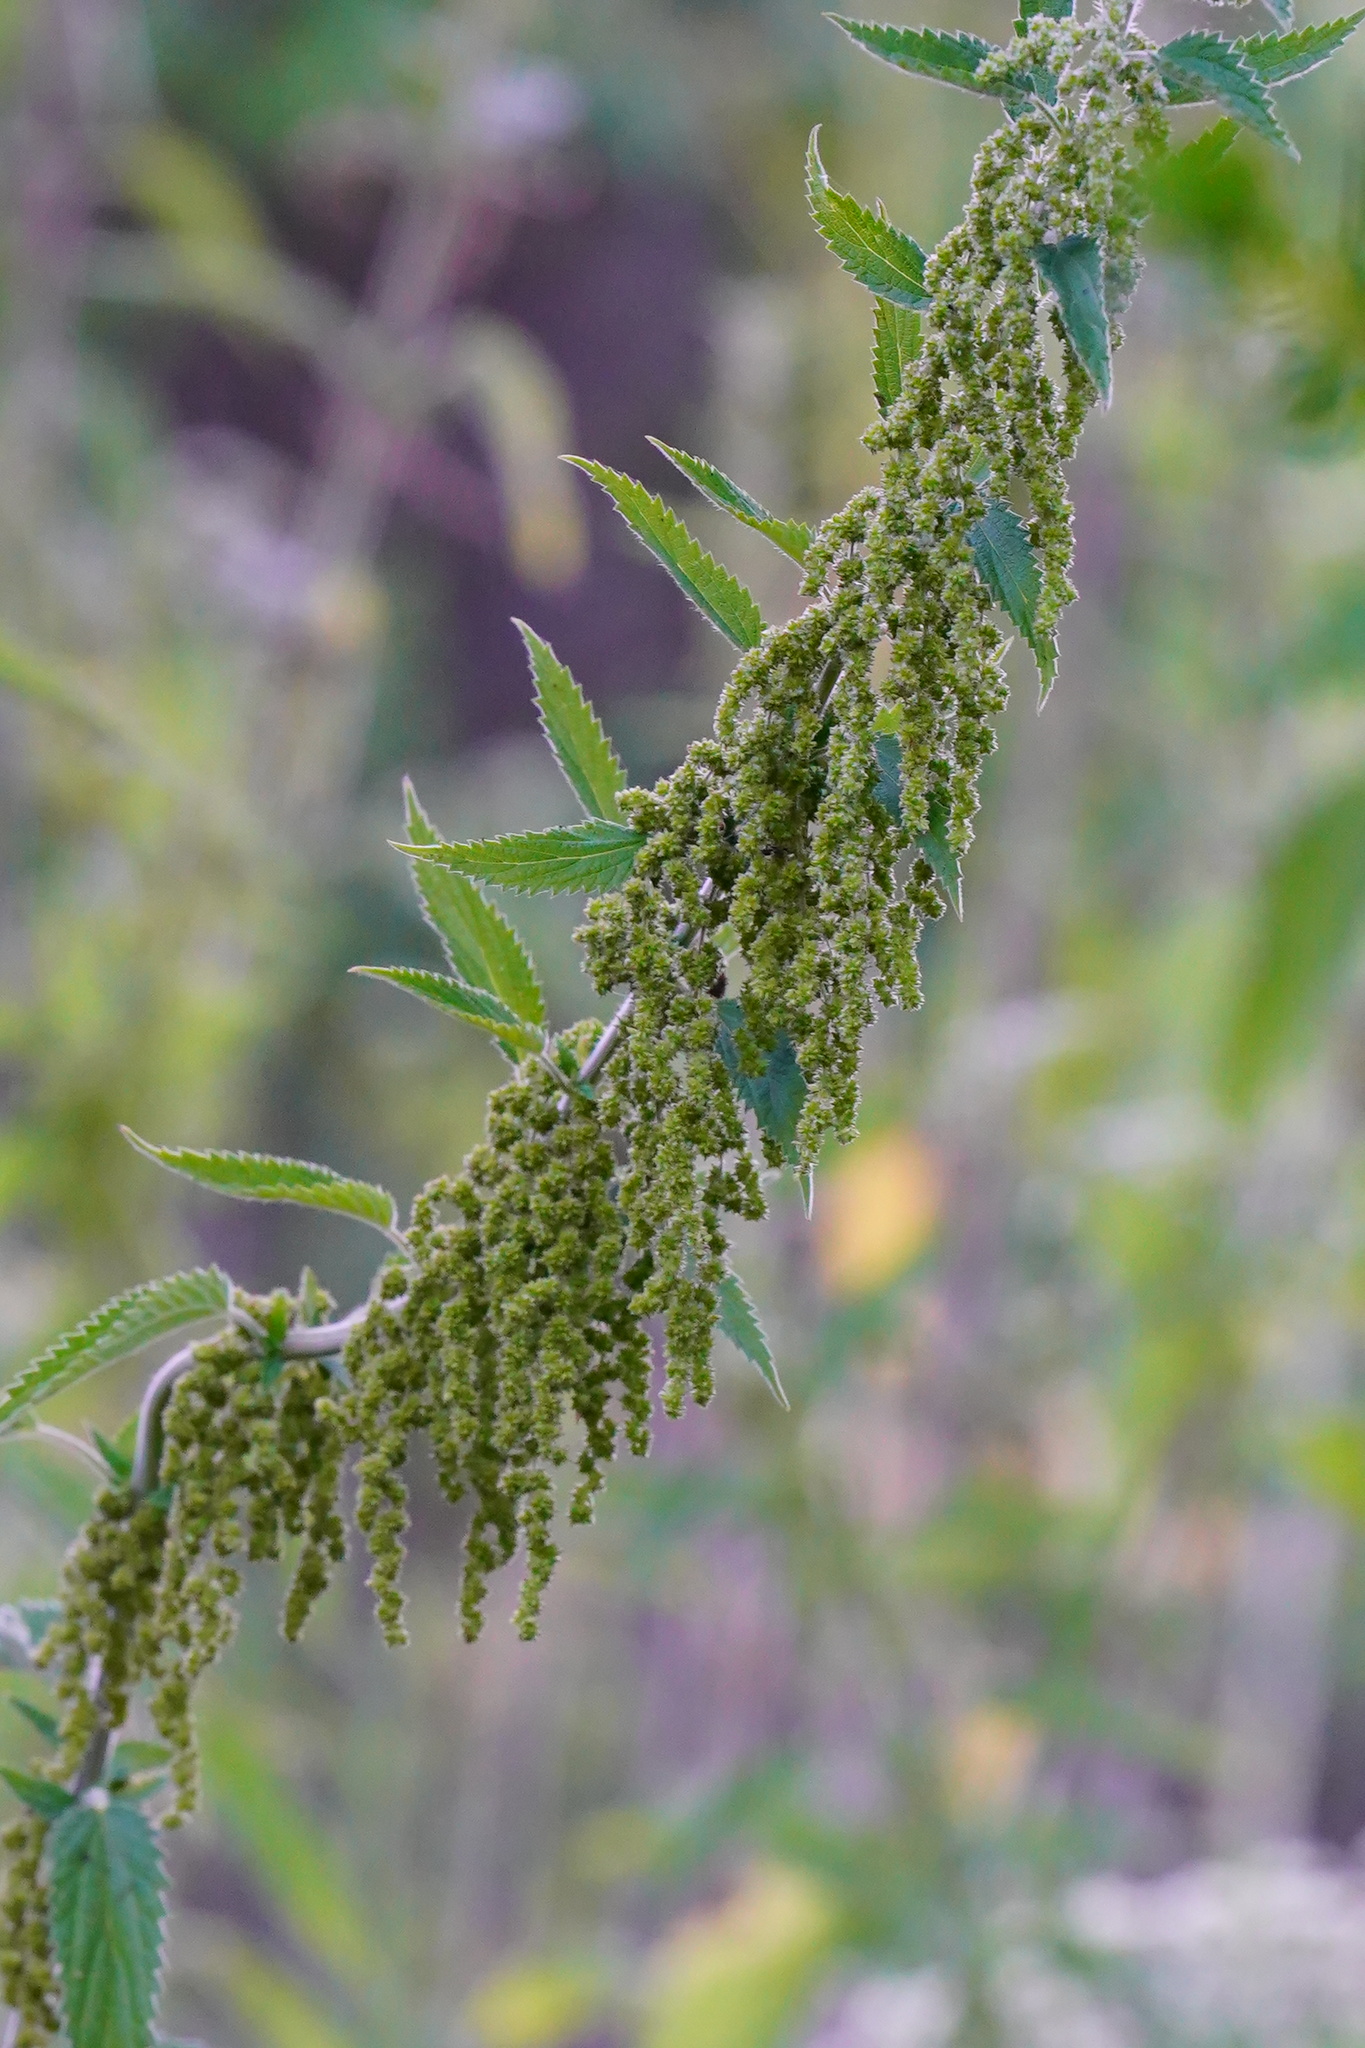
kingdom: Plantae
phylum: Tracheophyta
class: Magnoliopsida
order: Rosales
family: Urticaceae
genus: Urtica
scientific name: Urtica dioica
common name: Common nettle
